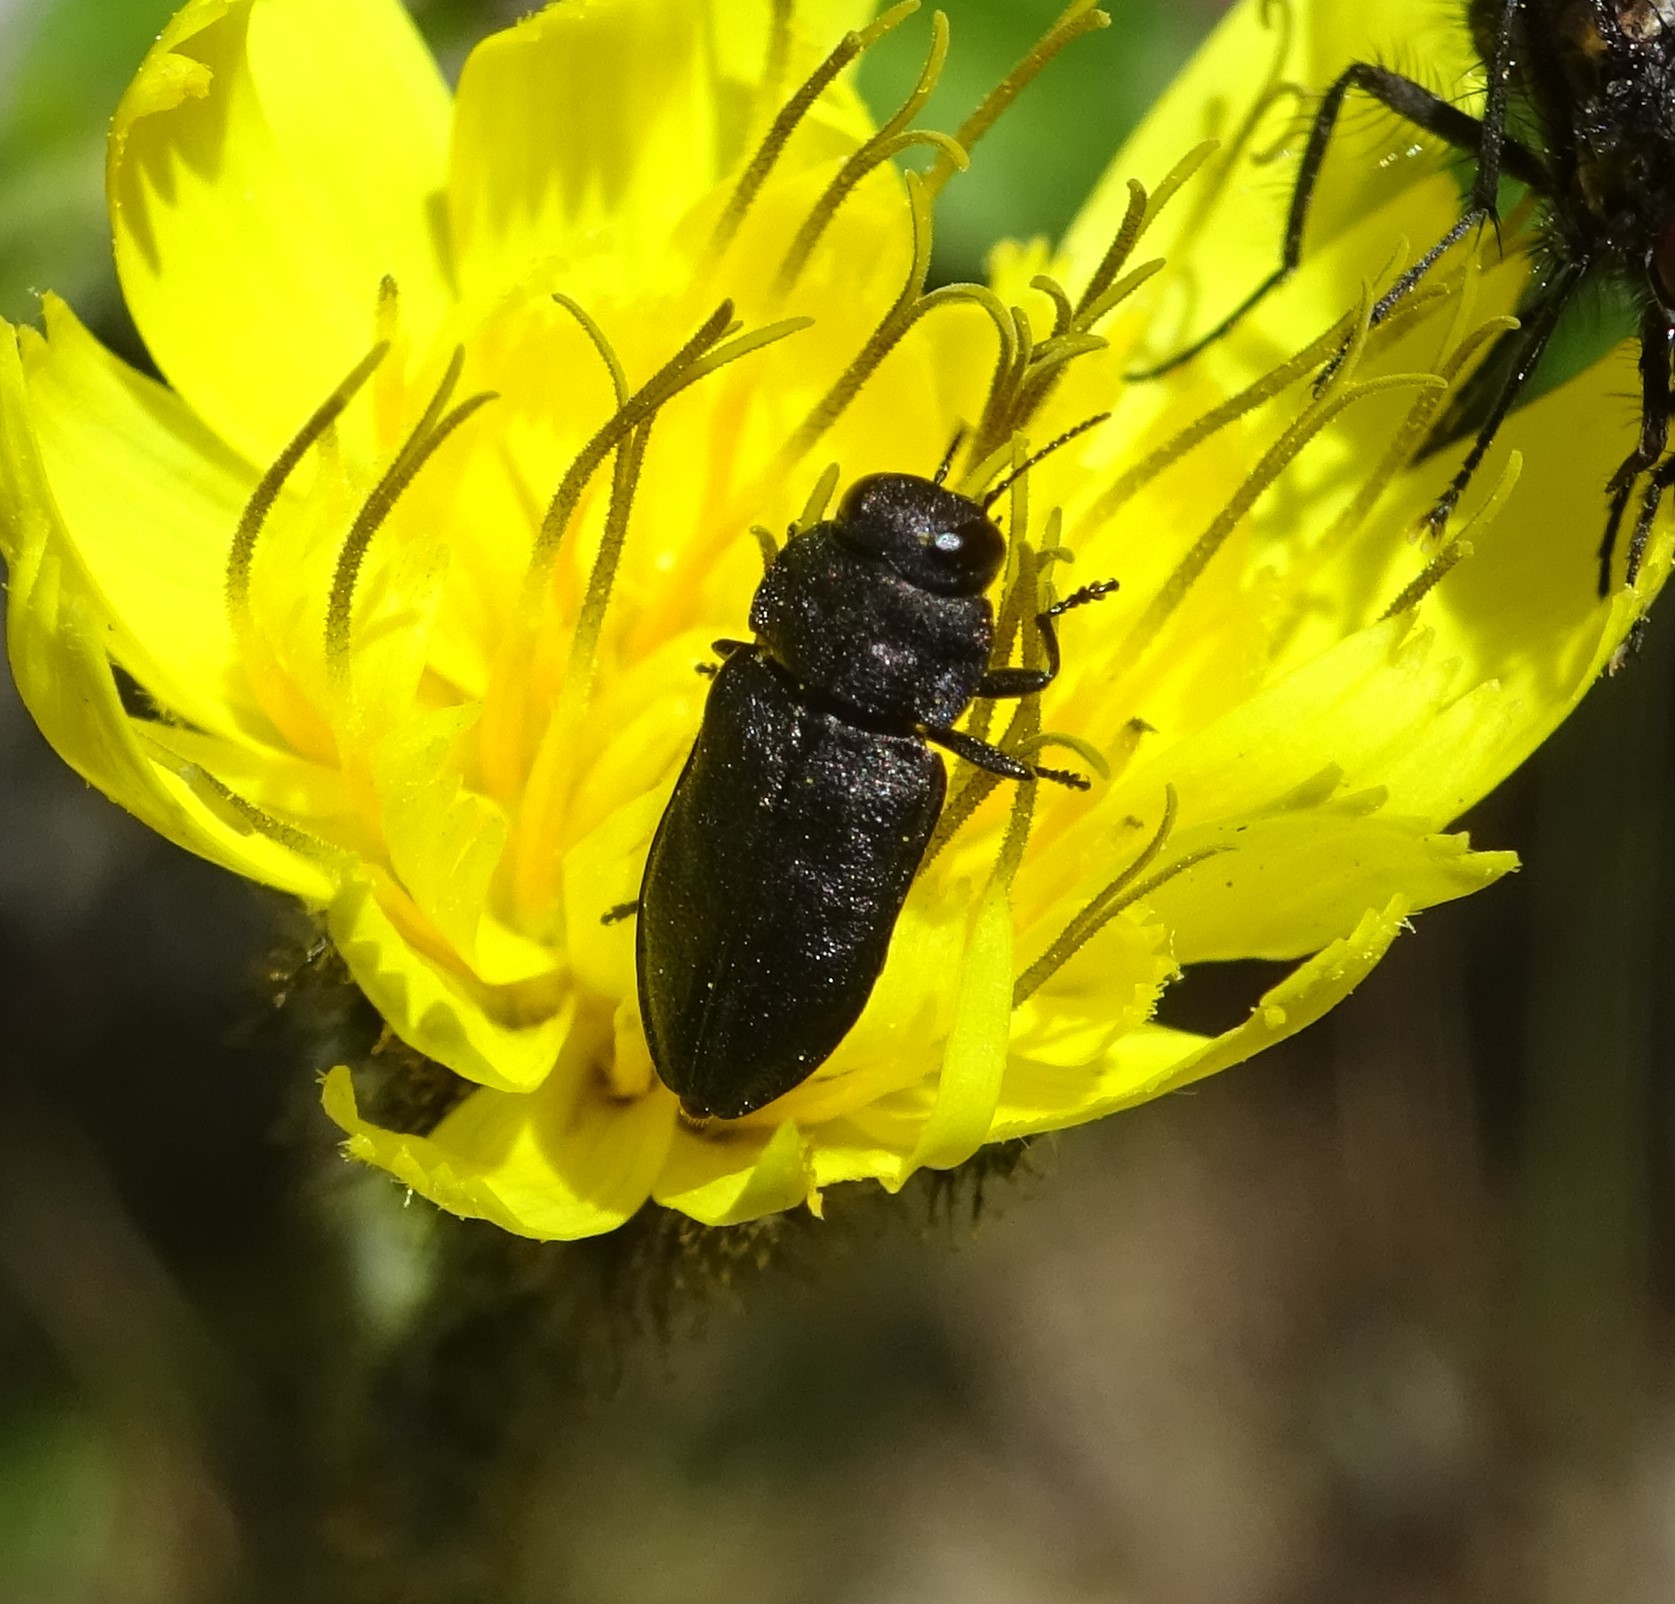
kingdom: Animalia
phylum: Arthropoda
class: Insecta
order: Coleoptera
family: Buprestidae
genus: Anthaxia
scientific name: Anthaxia quadripunctata
